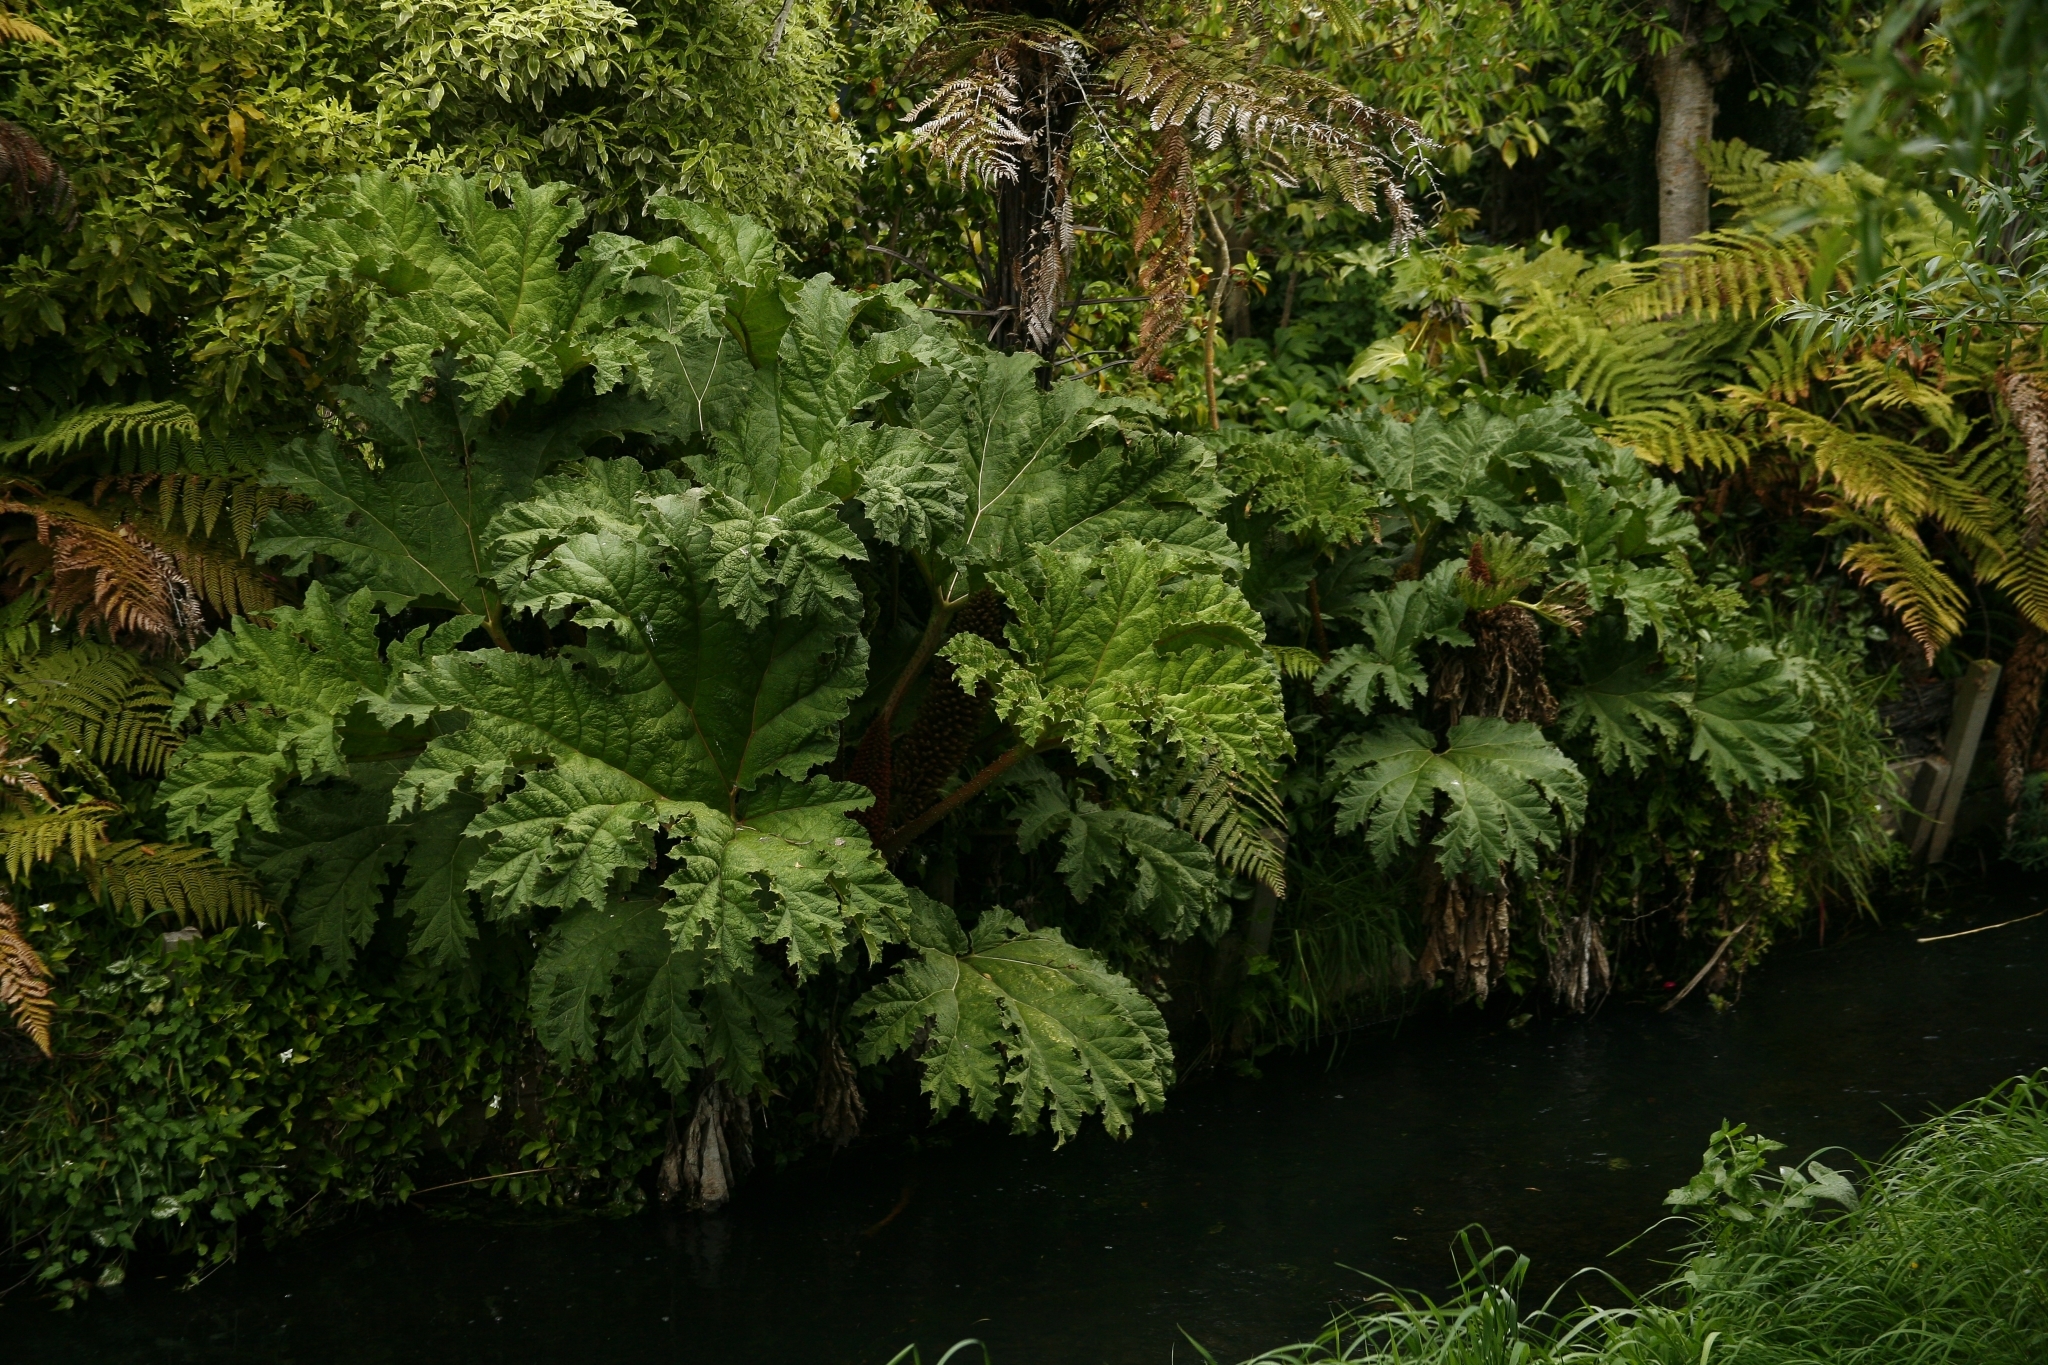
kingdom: Plantae
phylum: Tracheophyta
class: Magnoliopsida
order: Gunnerales
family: Gunneraceae
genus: Gunnera
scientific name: Gunnera tinctoria
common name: Giant-rhubarb
